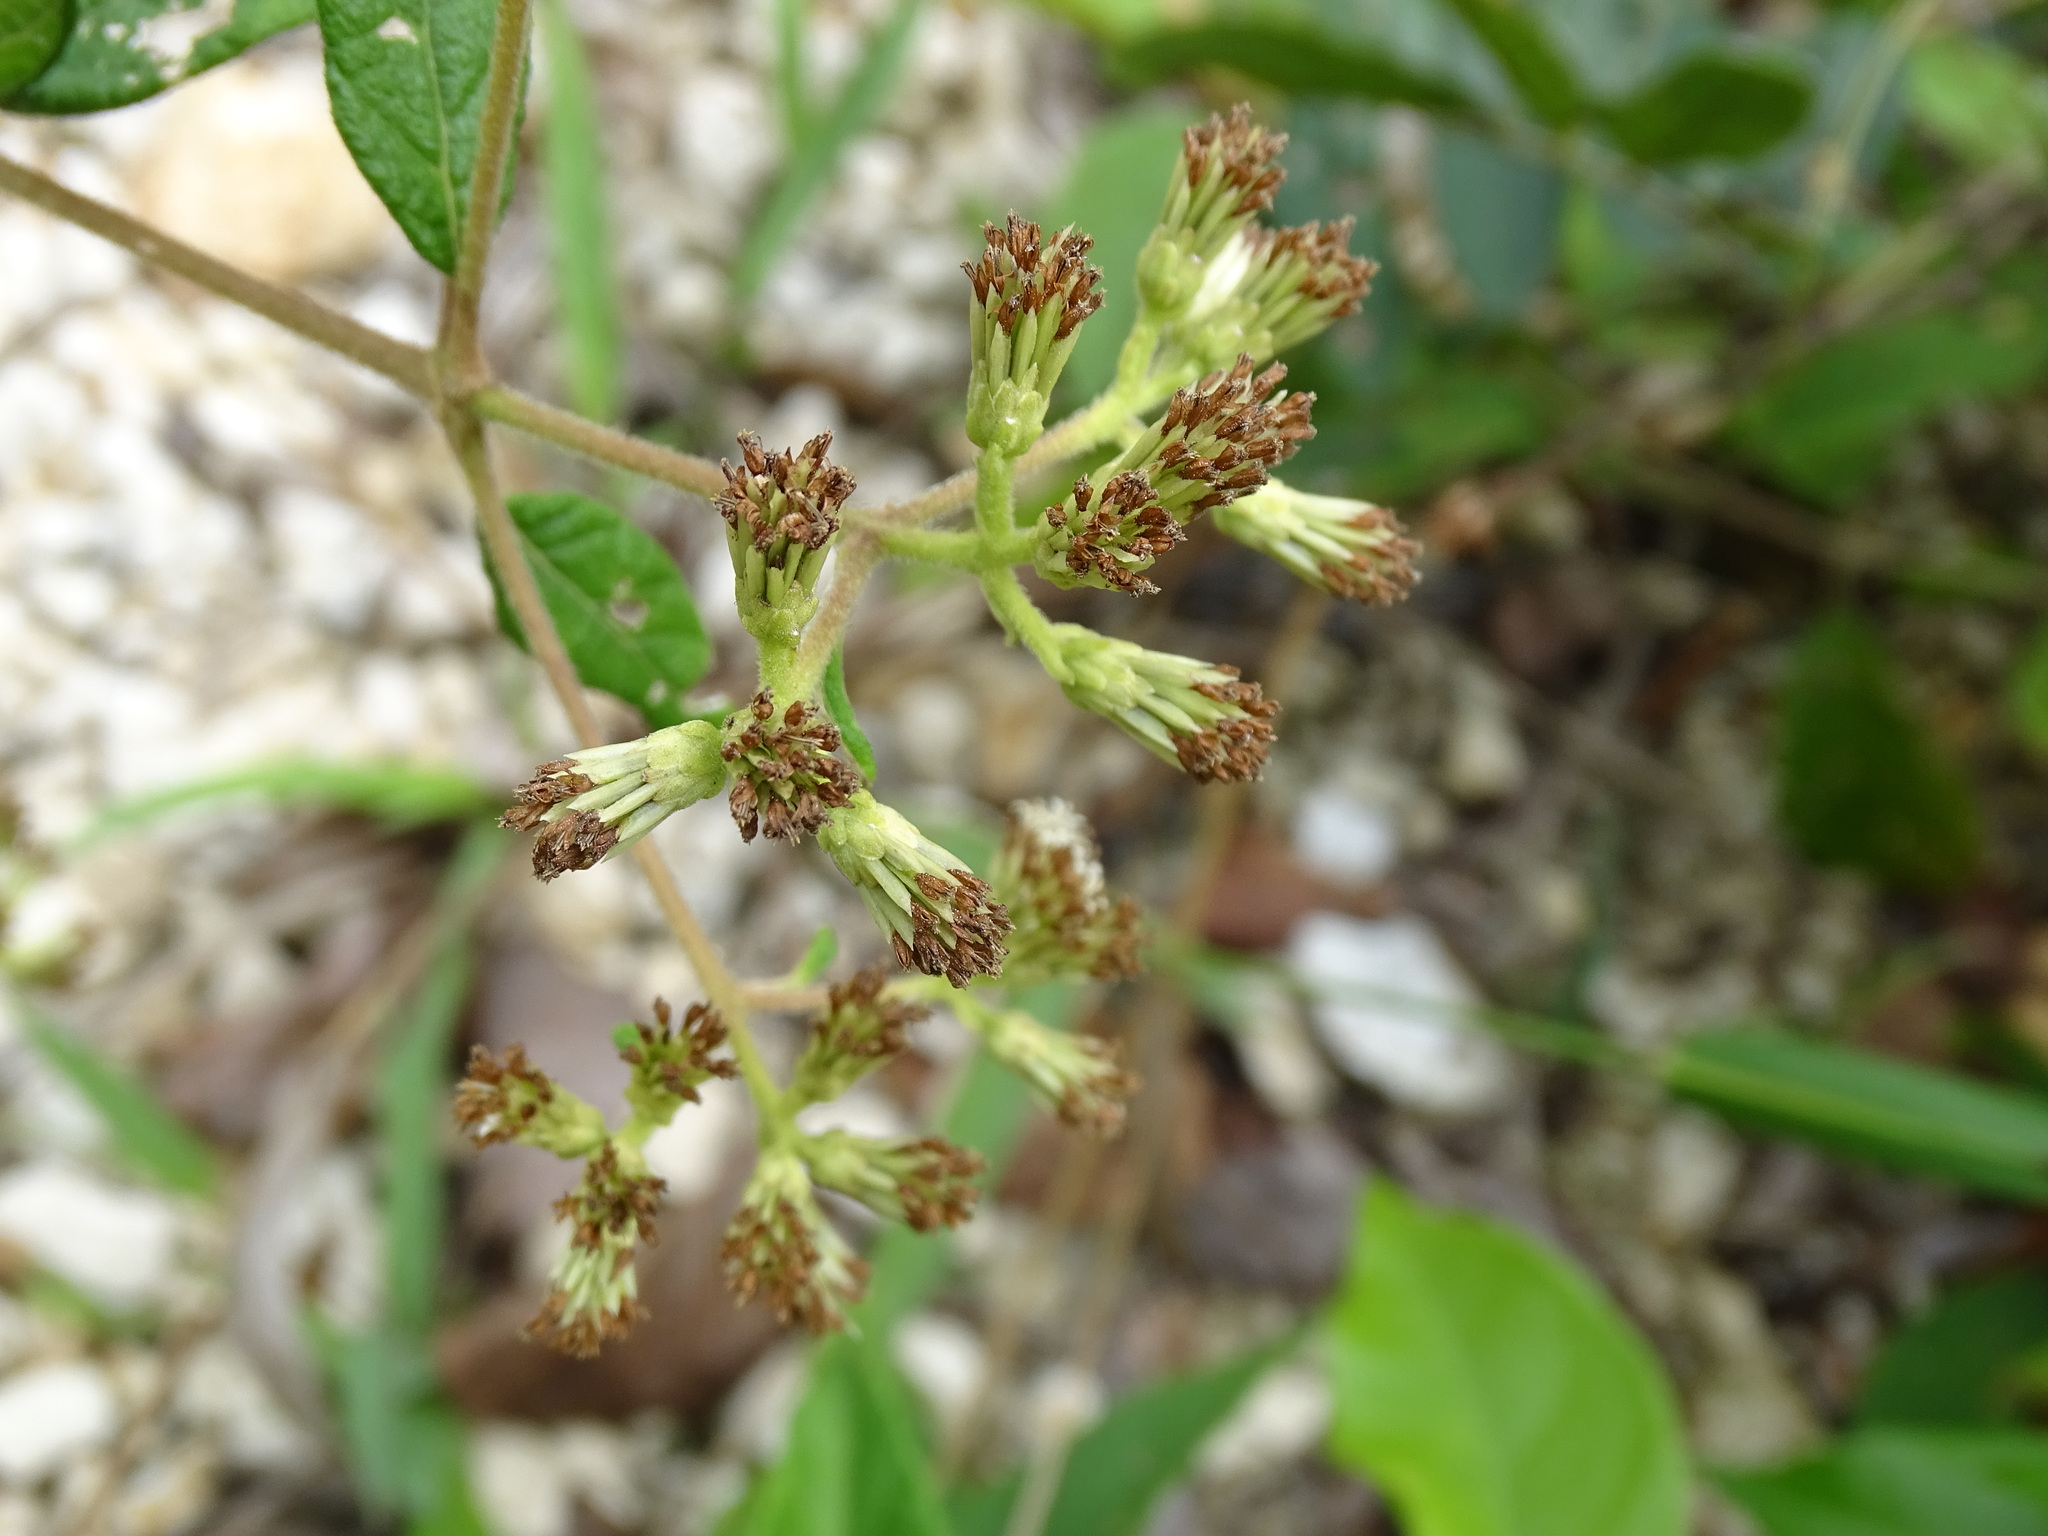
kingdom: Plantae
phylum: Tracheophyta
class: Magnoliopsida
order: Asterales
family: Asteraceae
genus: Otopappus
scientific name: Otopappus guatemalensis
